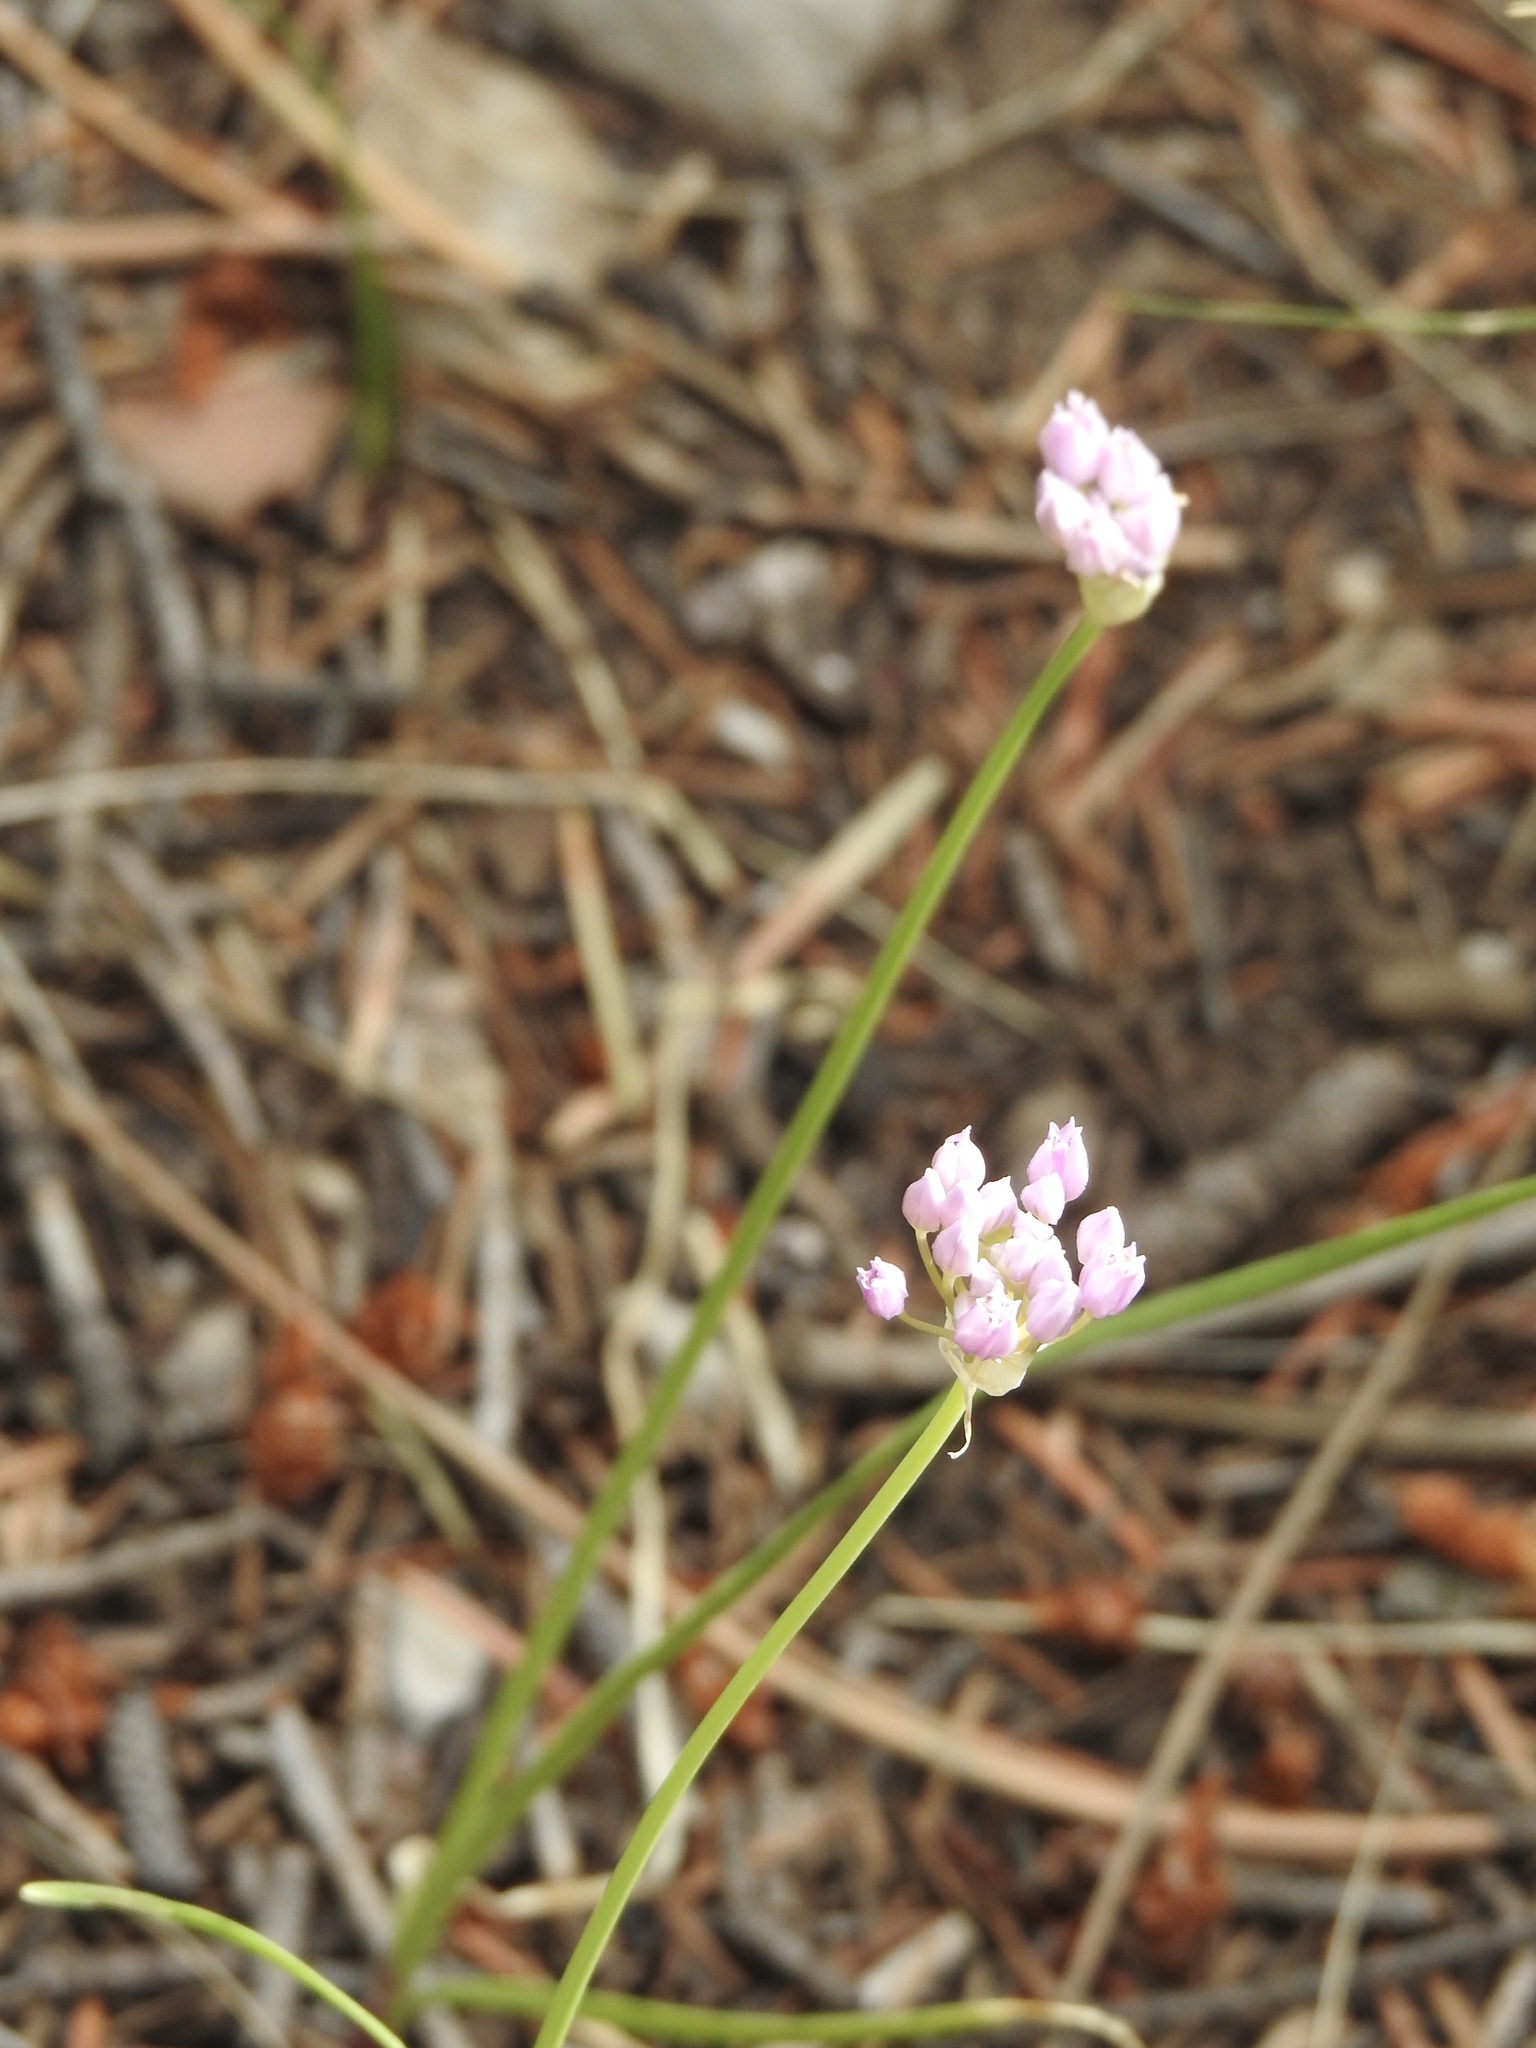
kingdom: Plantae
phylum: Tracheophyta
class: Liliopsida
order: Asparagales
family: Amaryllidaceae
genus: Allium
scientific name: Allium geyeri
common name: Geyer's onion
